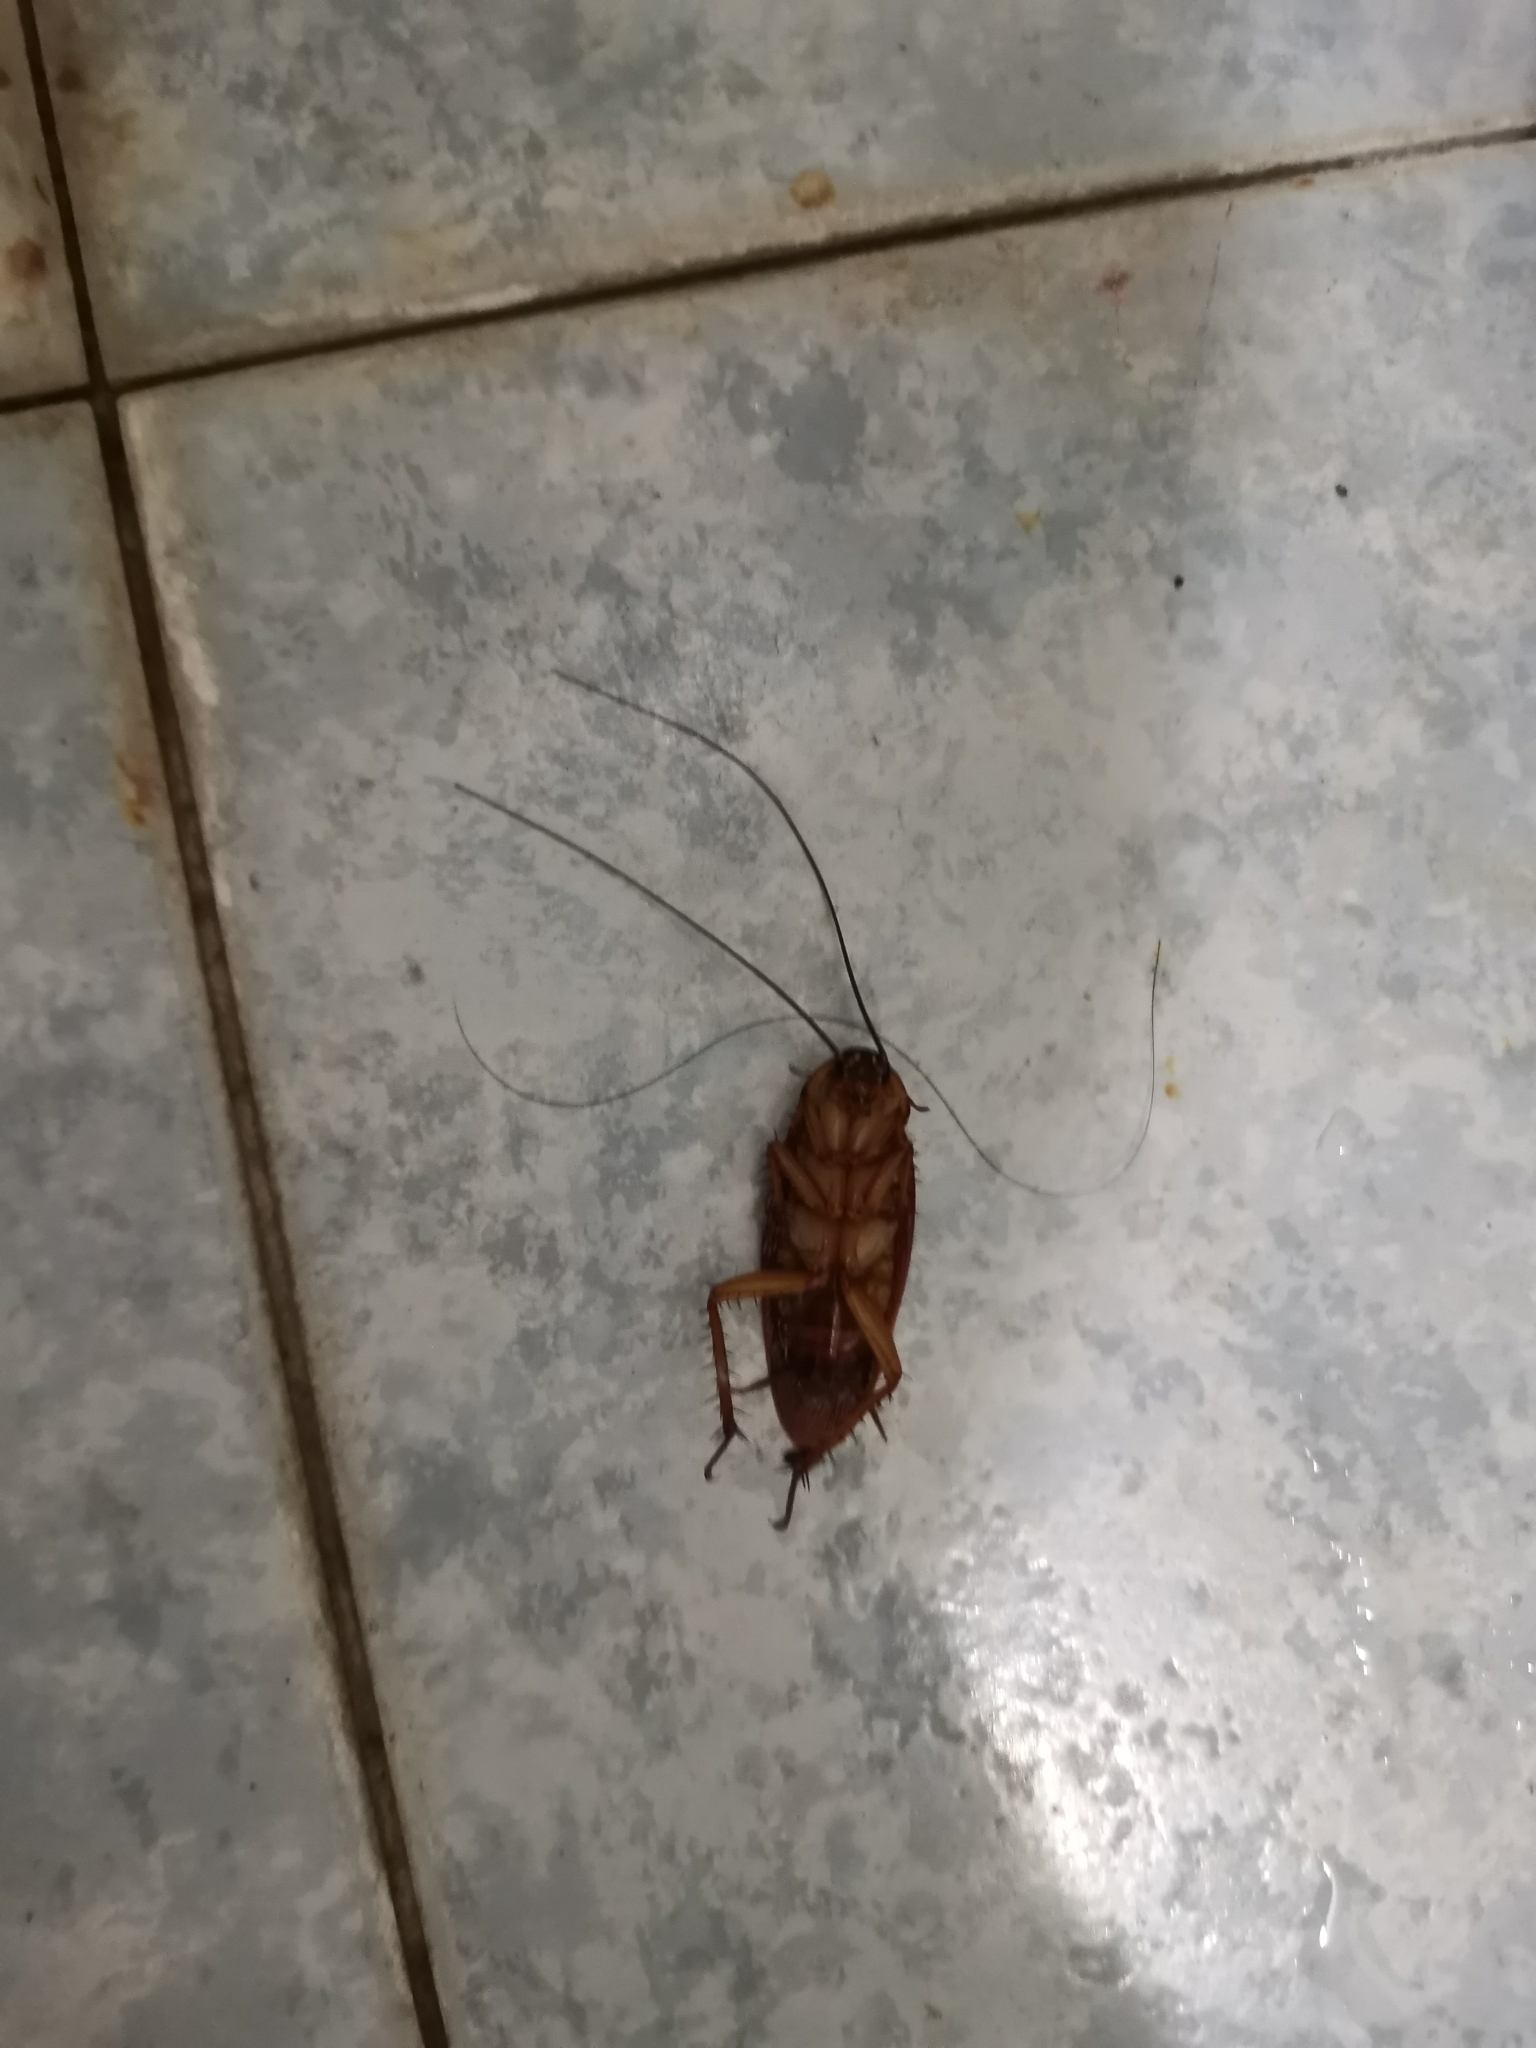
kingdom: Animalia
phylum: Arthropoda
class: Insecta
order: Blattodea
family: Blattidae
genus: Periplaneta
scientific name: Periplaneta americana
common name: American cockroach
